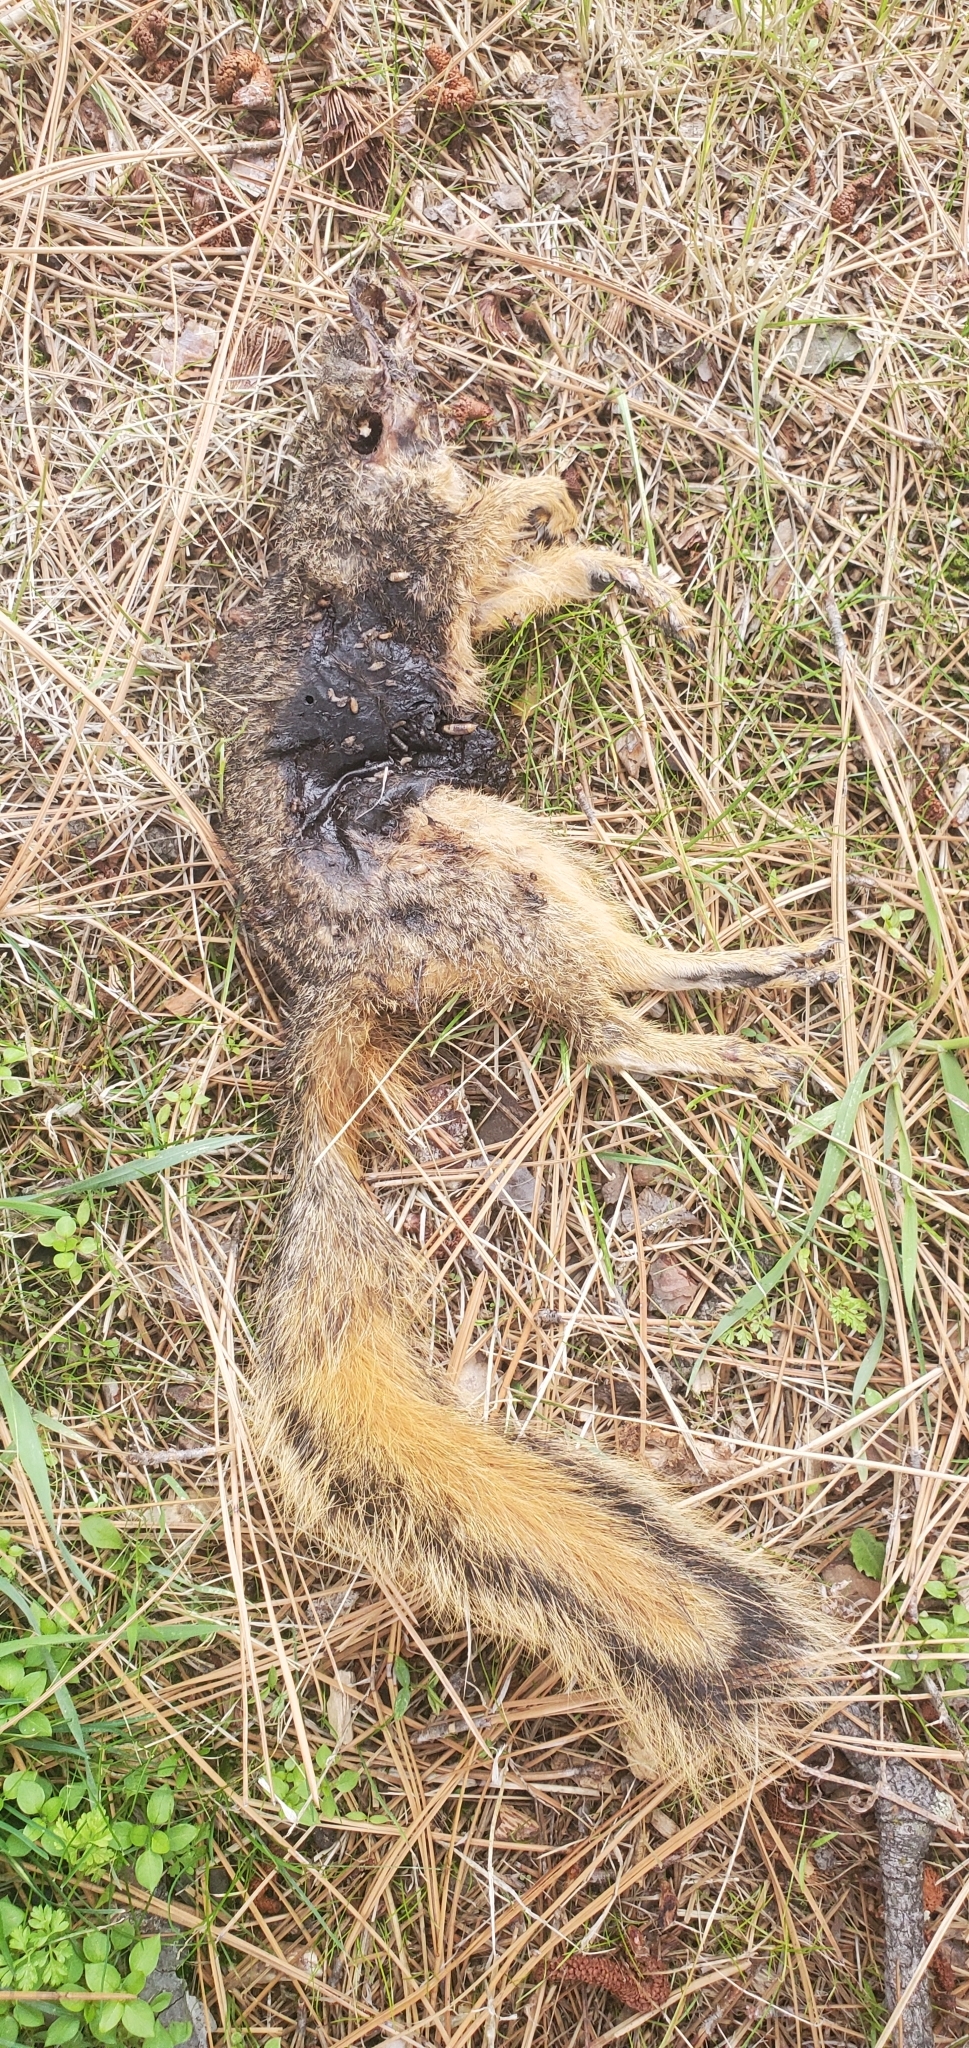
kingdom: Animalia
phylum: Chordata
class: Mammalia
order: Rodentia
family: Sciuridae
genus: Sciurus
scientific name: Sciurus niger
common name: Fox squirrel
